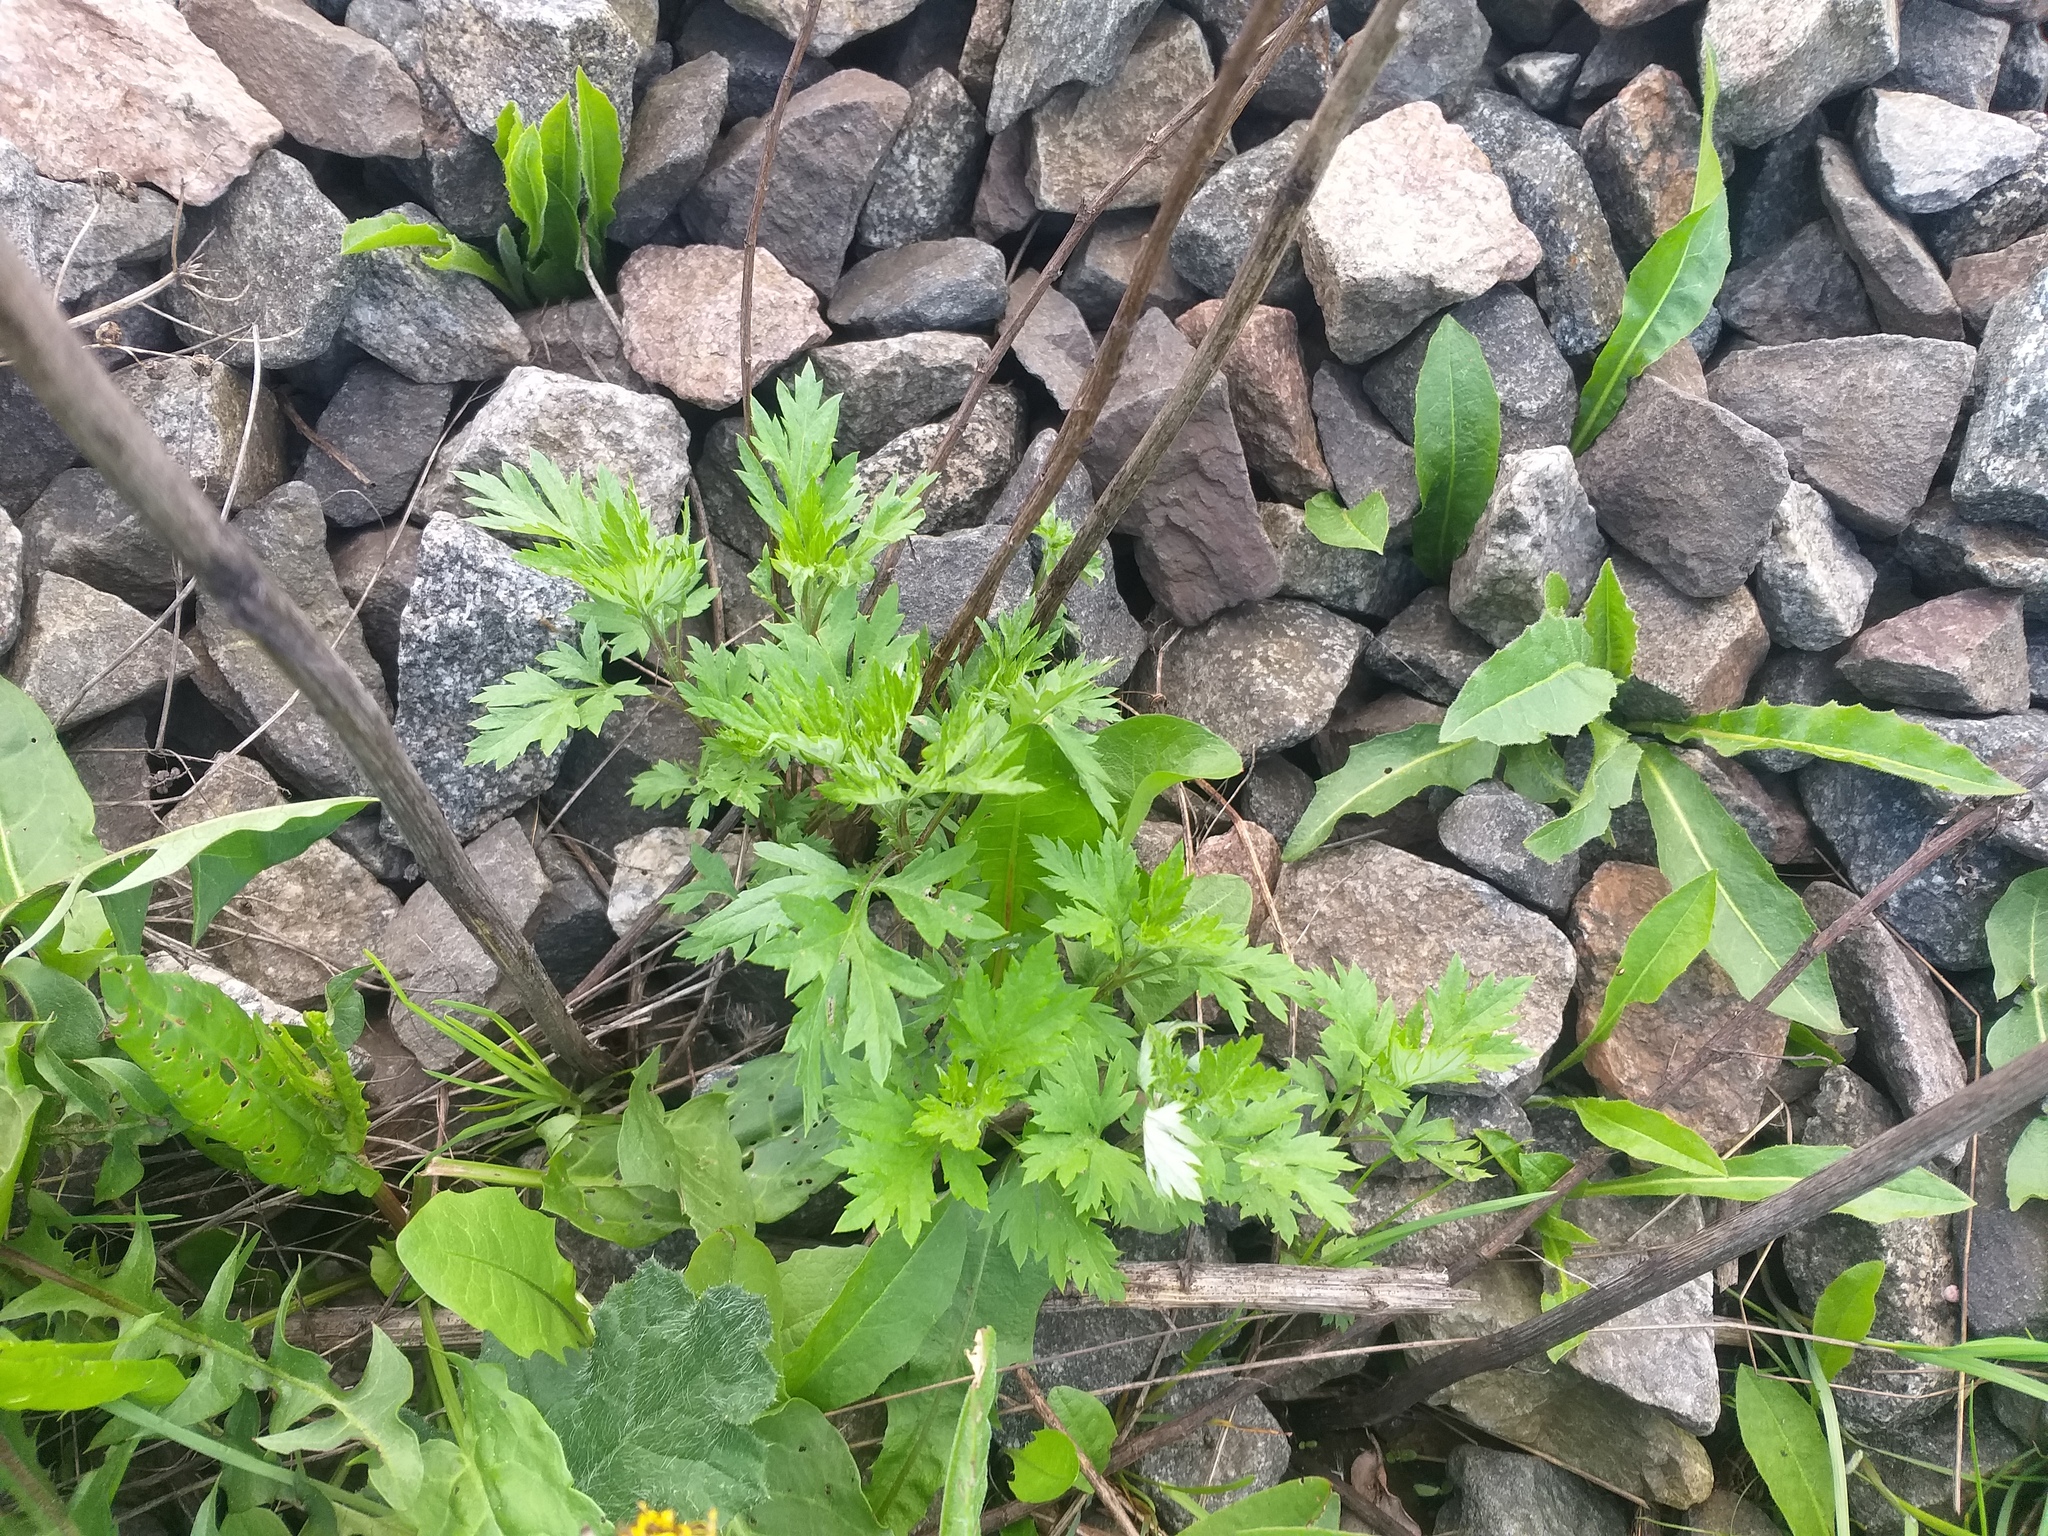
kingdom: Plantae
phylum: Tracheophyta
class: Magnoliopsida
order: Asterales
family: Asteraceae
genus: Artemisia
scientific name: Artemisia vulgaris
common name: Mugwort
